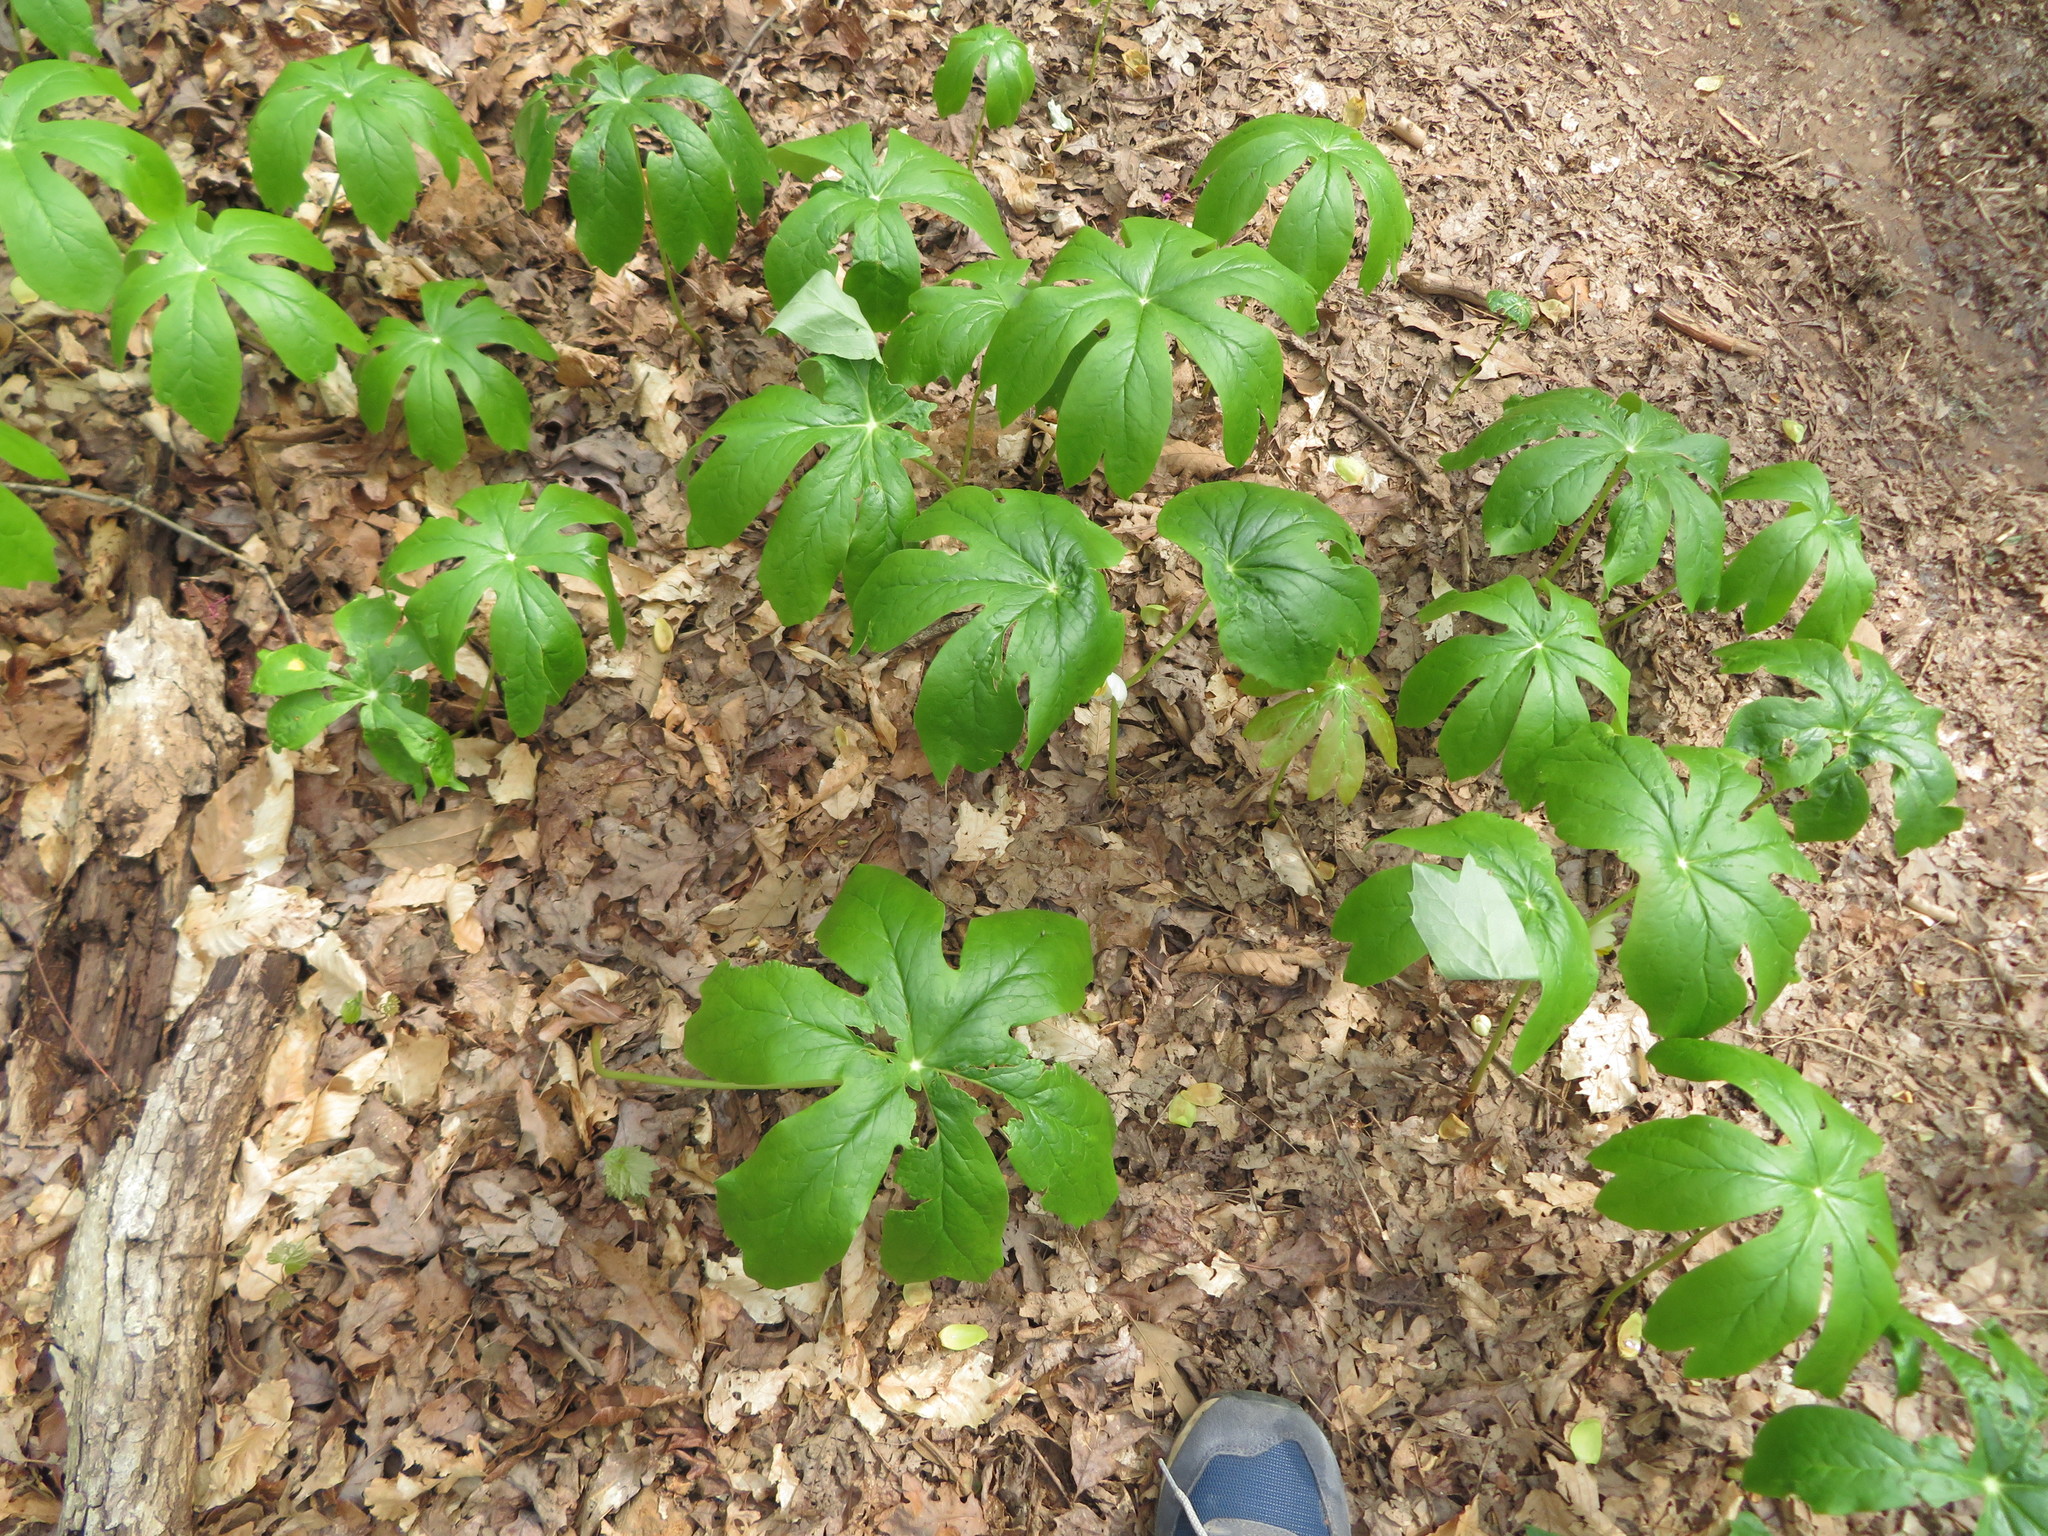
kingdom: Plantae
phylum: Tracheophyta
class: Magnoliopsida
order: Ranunculales
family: Berberidaceae
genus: Podophyllum
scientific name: Podophyllum peltatum
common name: Wild mandrake
